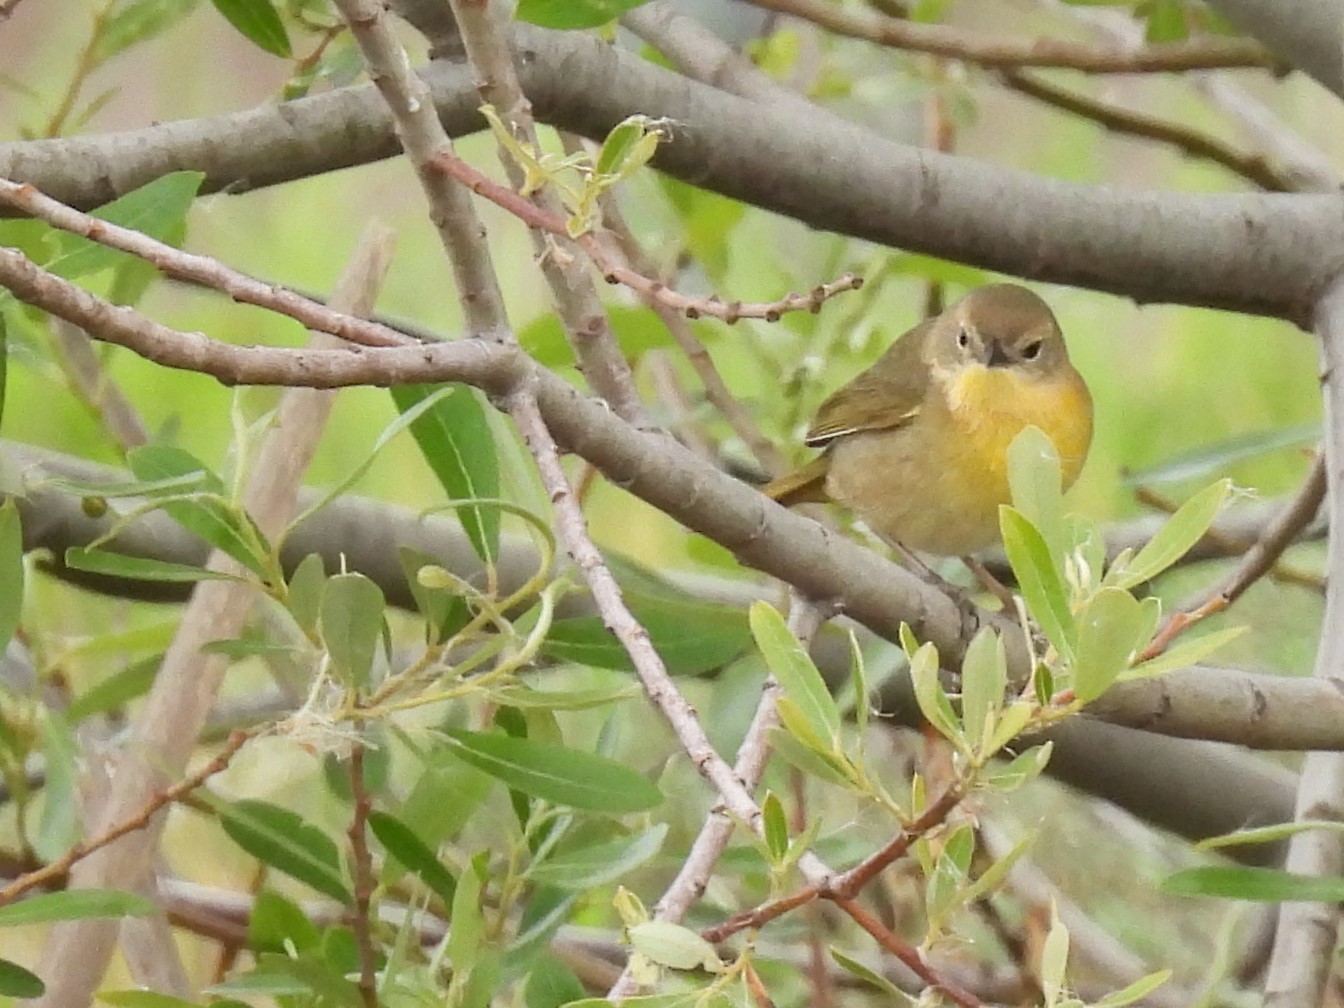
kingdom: Animalia
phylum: Chordata
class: Aves
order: Passeriformes
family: Parulidae
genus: Geothlypis
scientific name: Geothlypis trichas
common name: Common yellowthroat
